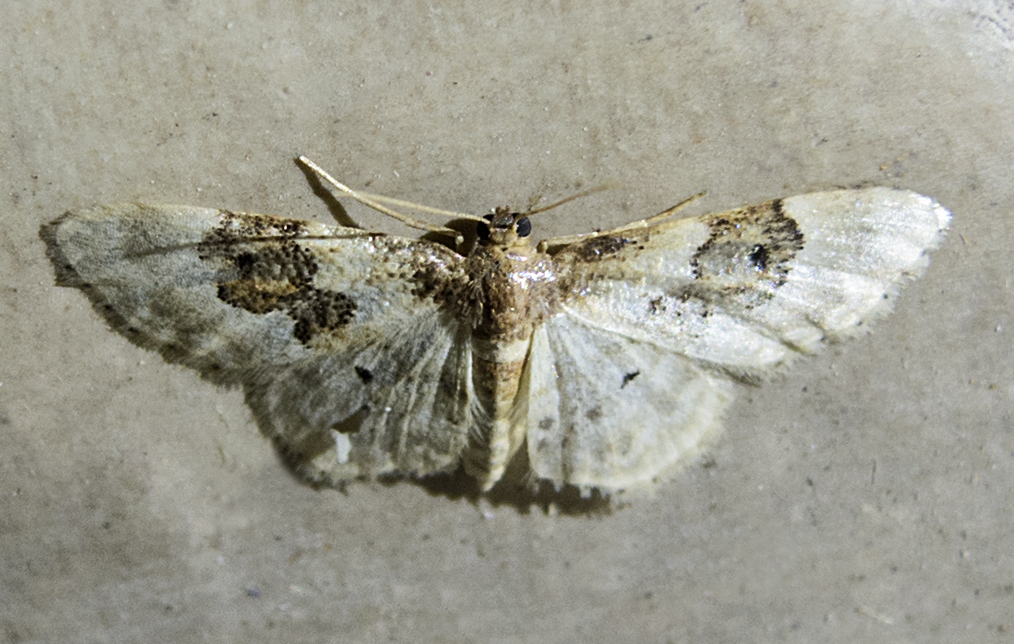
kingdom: Animalia
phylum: Arthropoda
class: Insecta
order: Lepidoptera
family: Geometridae
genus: Idaea
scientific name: Idaea rusticata
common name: Least carpet
